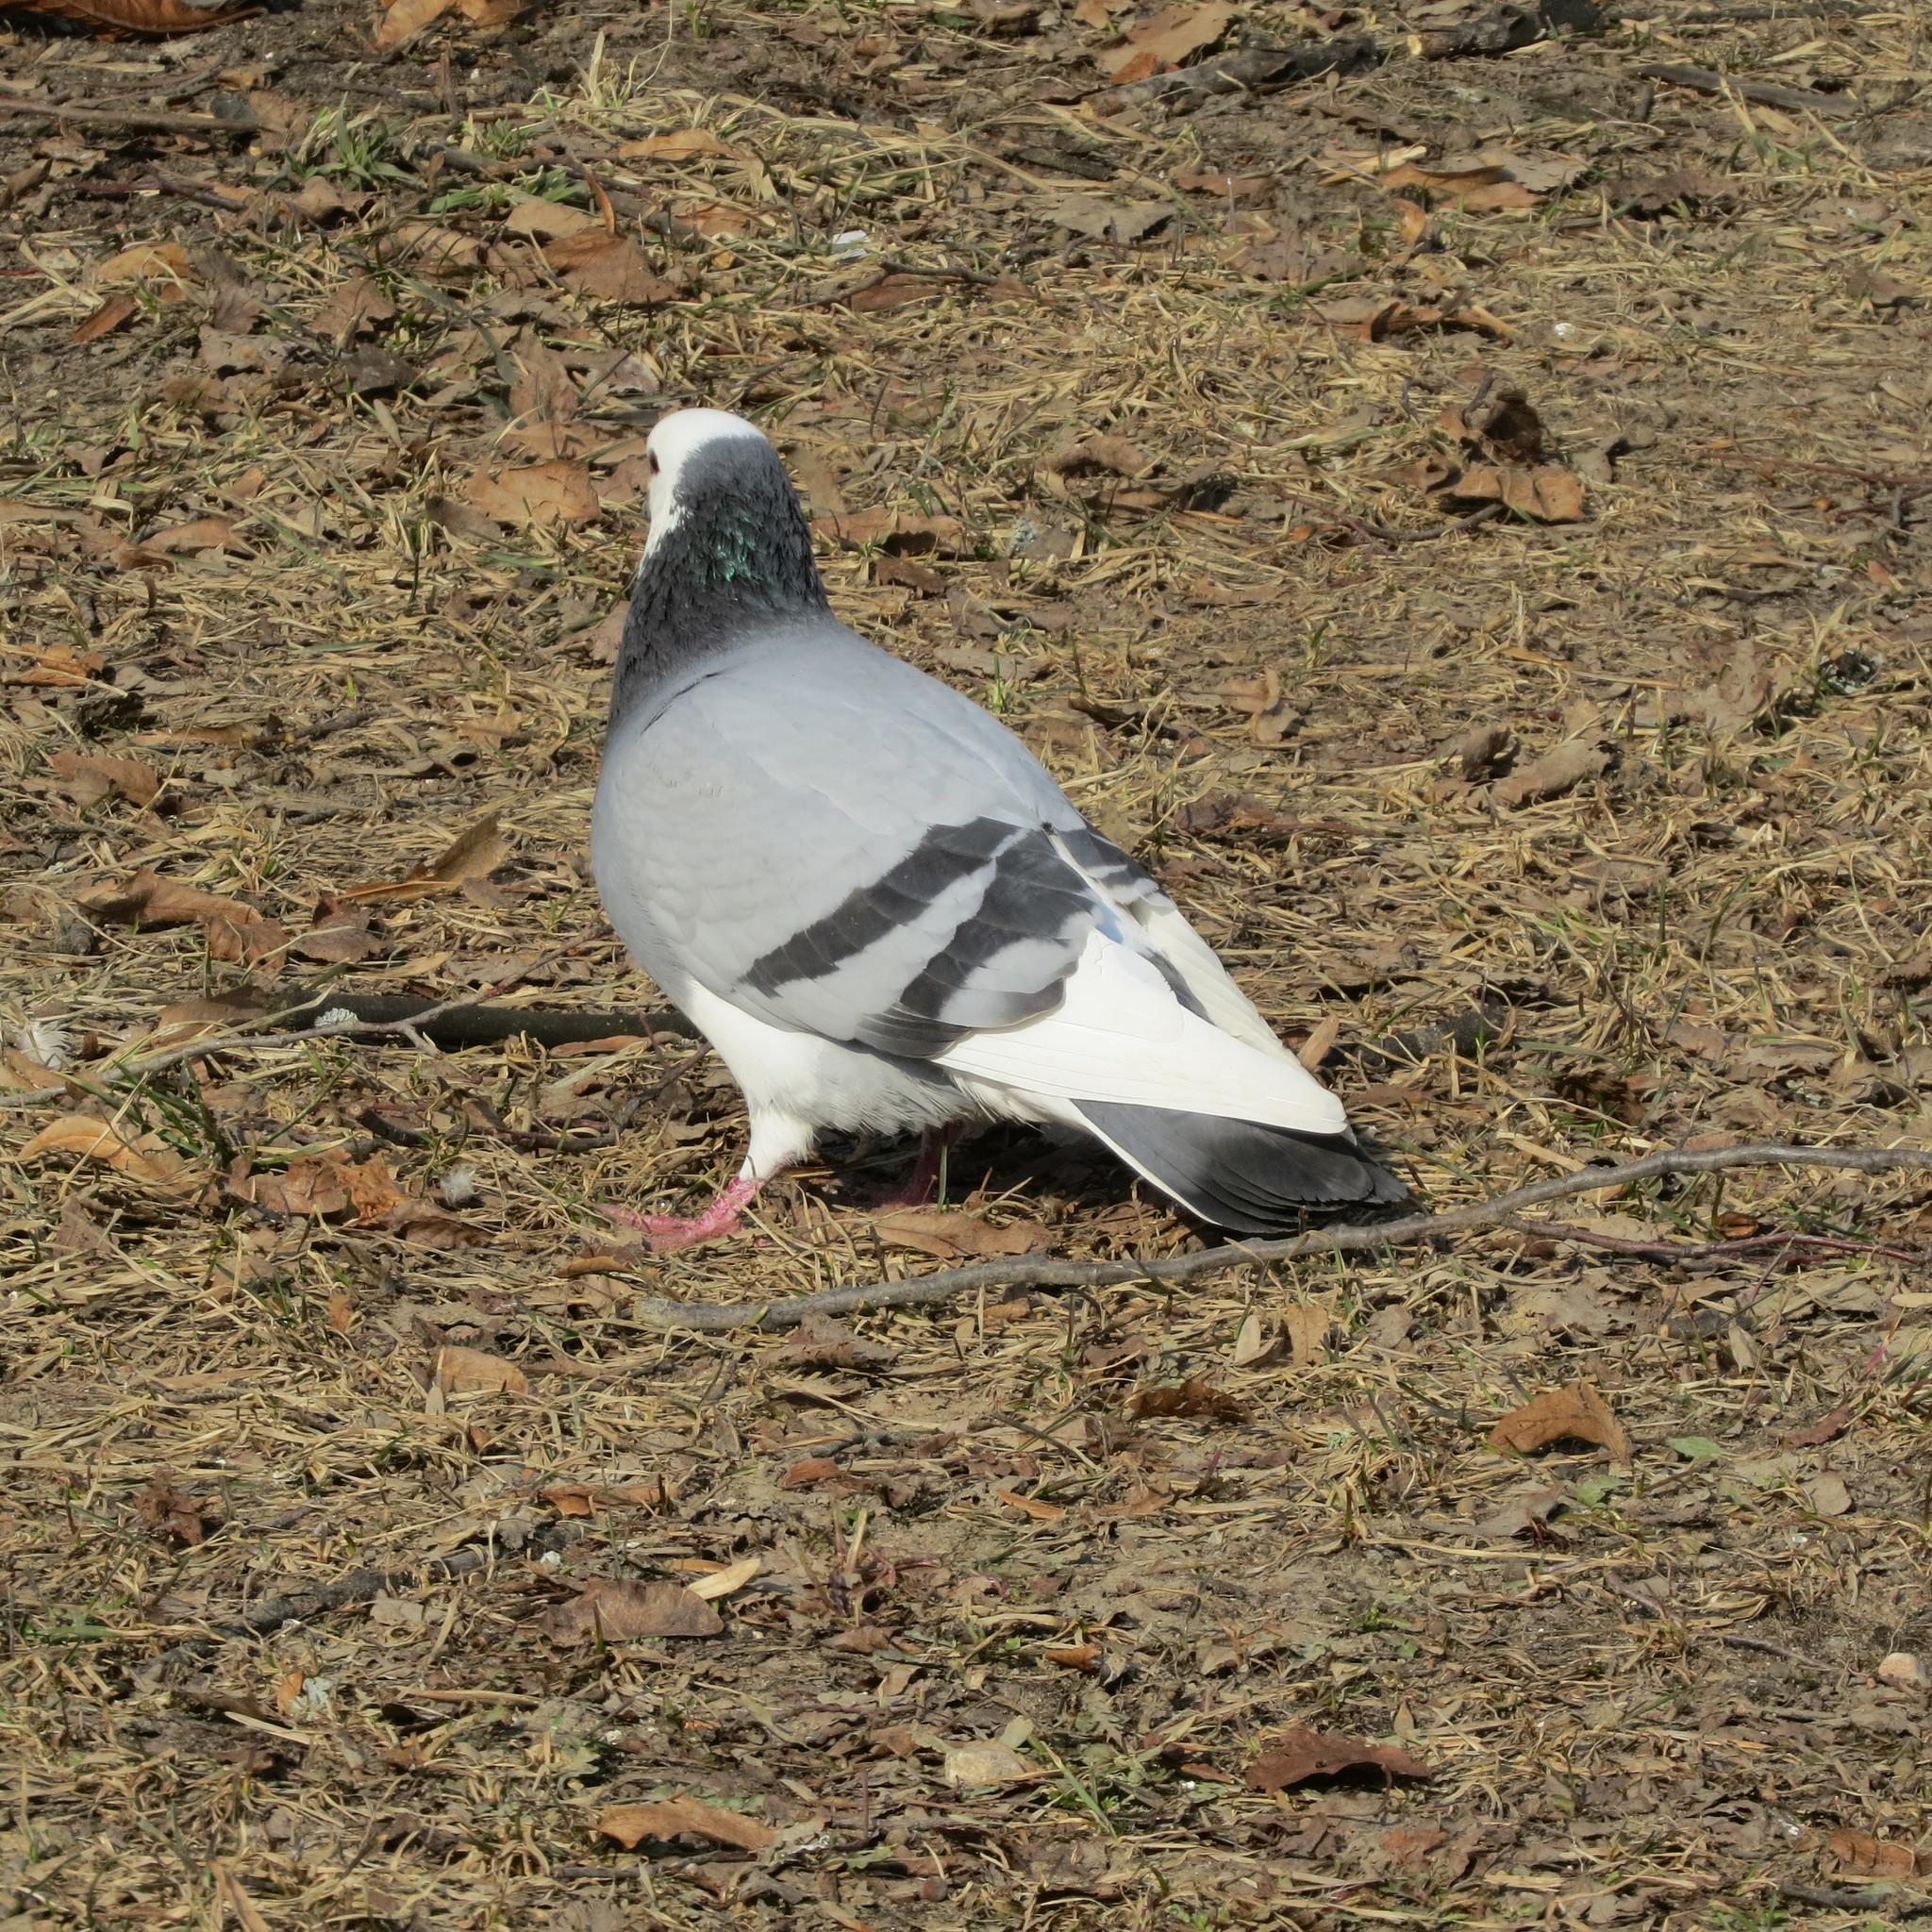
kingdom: Animalia
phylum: Chordata
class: Aves
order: Columbiformes
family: Columbidae
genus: Columba
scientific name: Columba livia
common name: Rock pigeon
